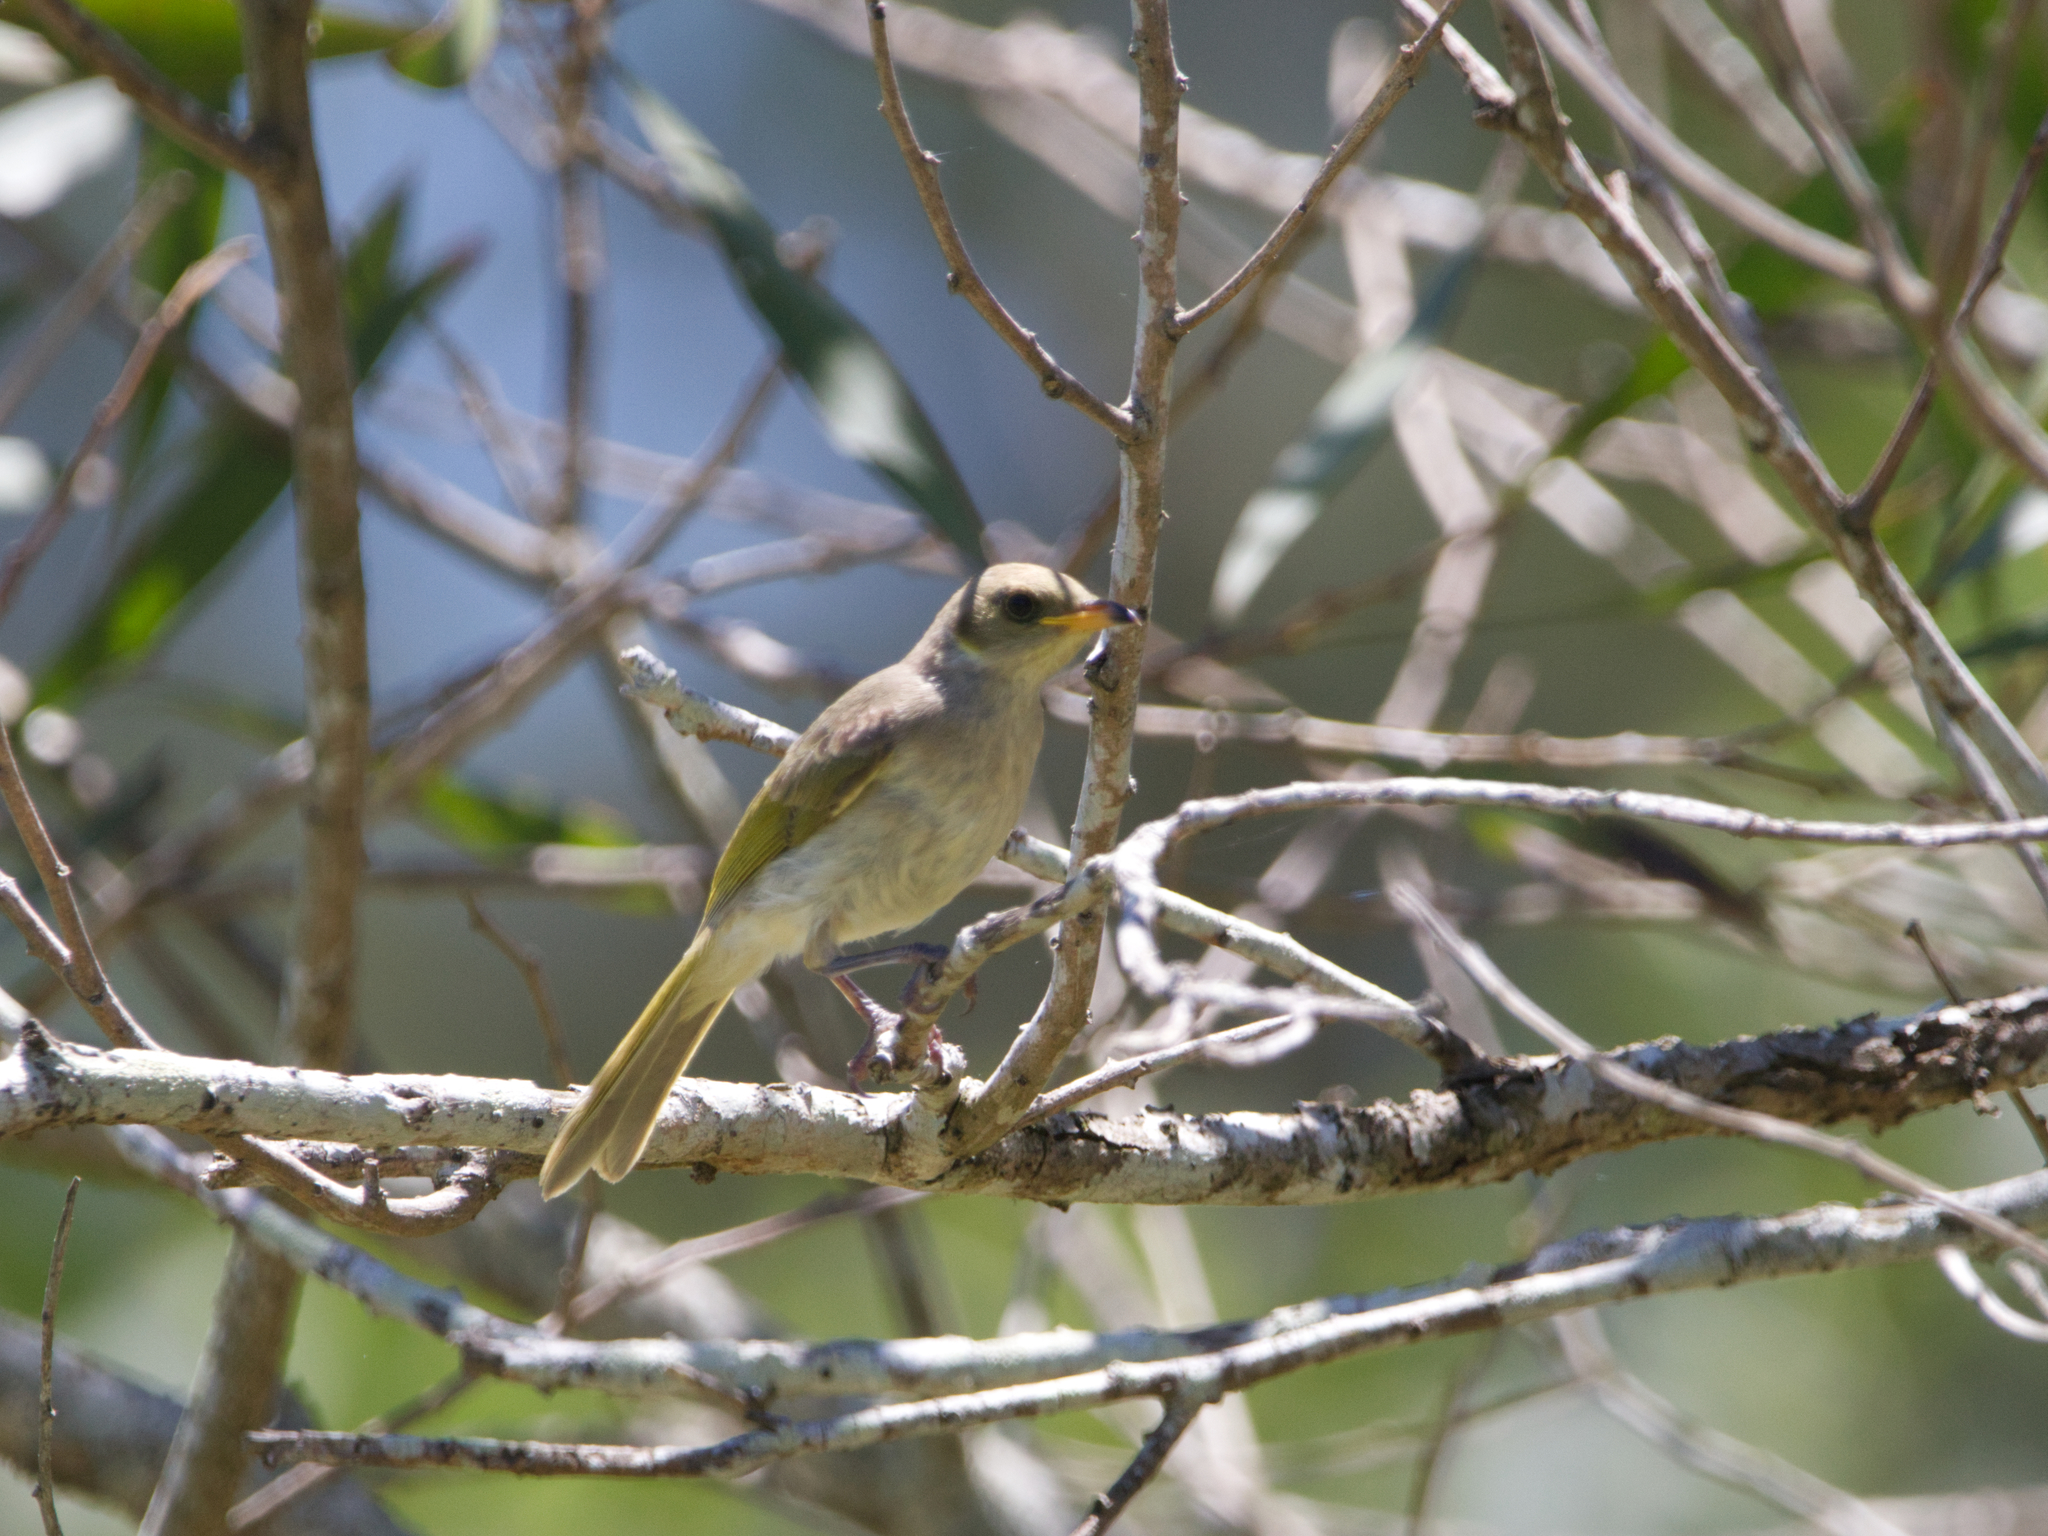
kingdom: Animalia
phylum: Chordata
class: Aves
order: Passeriformes
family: Meliphagidae
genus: Ptilotula
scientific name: Ptilotula fusca
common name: Fuscous honeyeater
